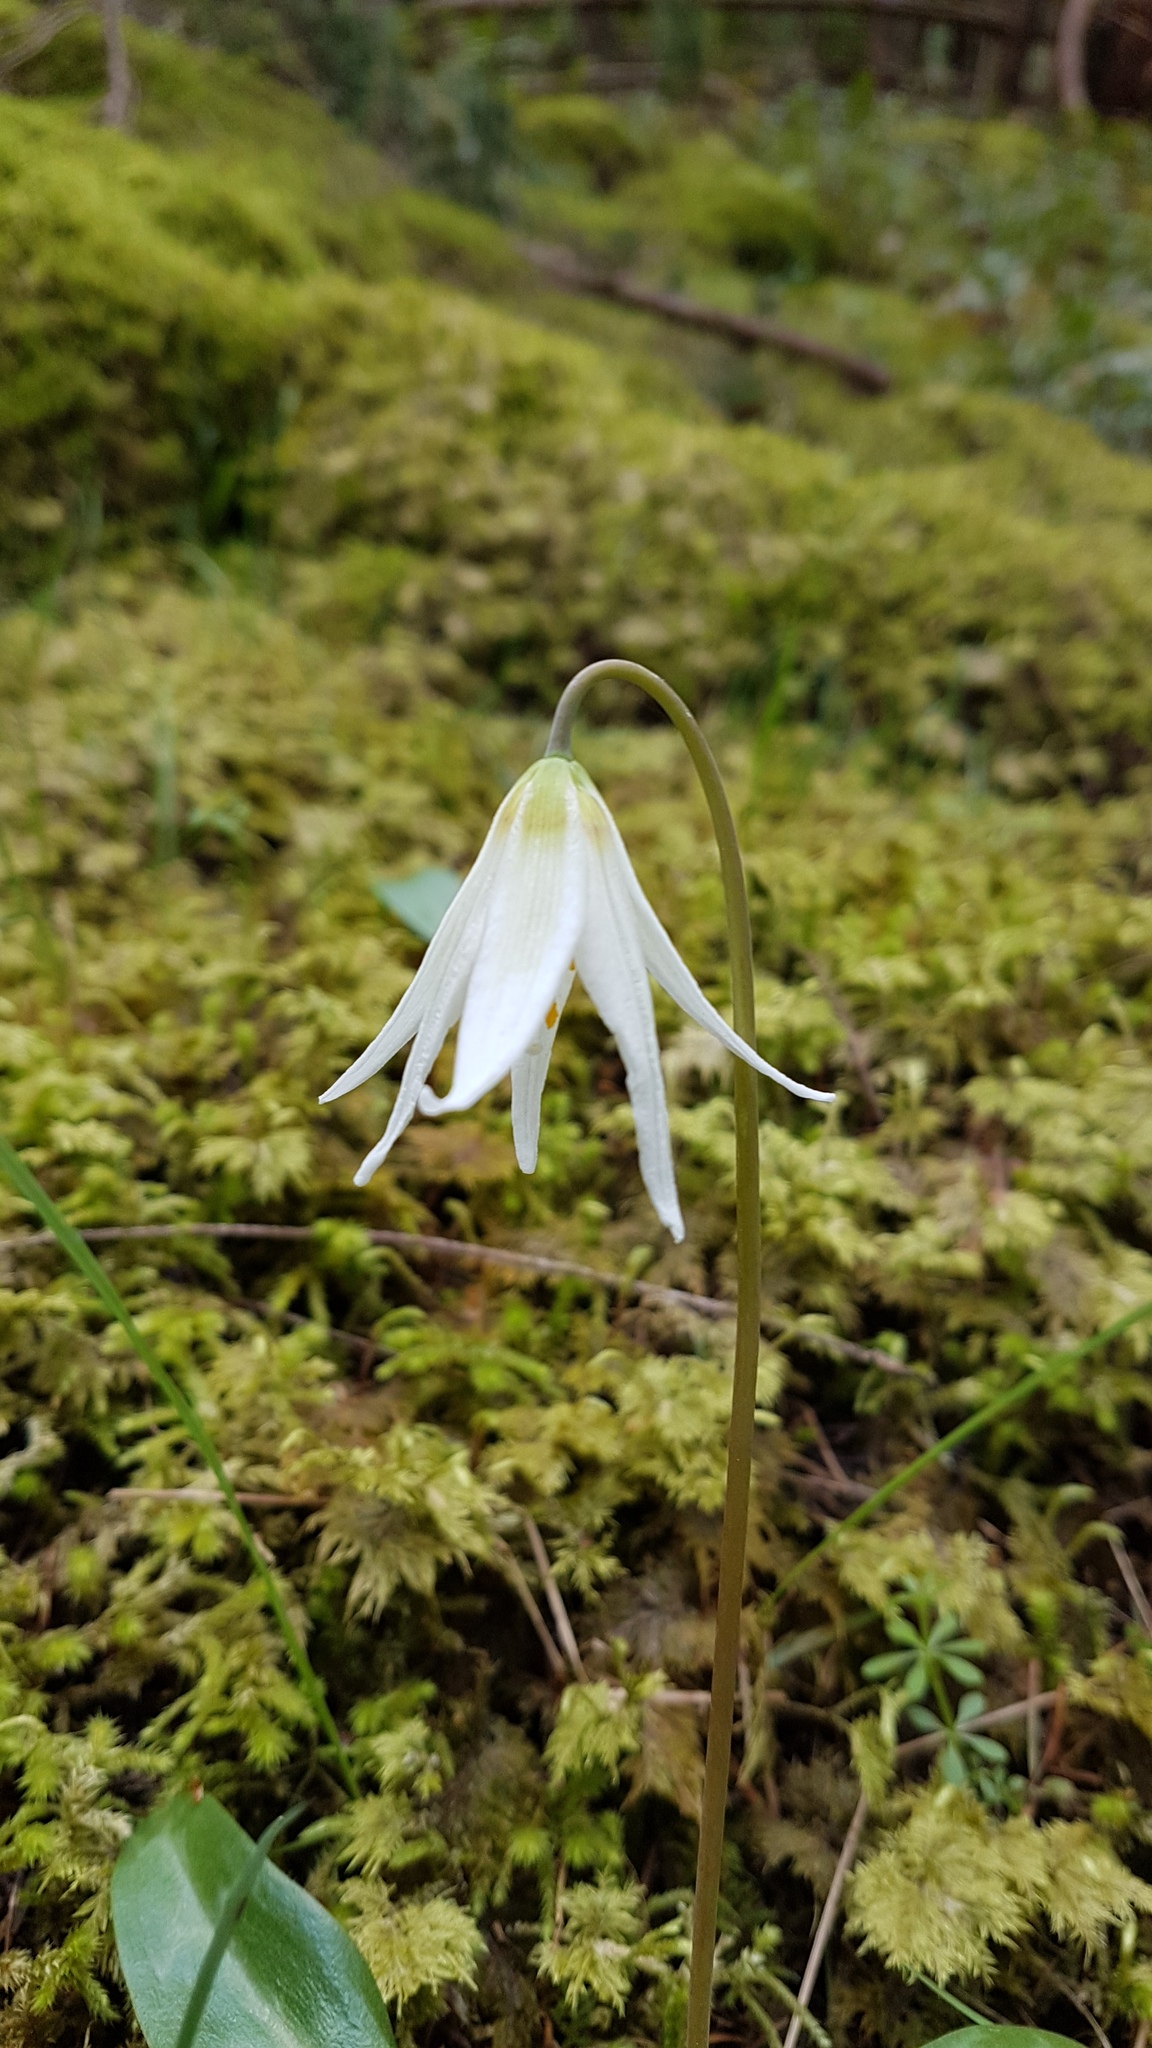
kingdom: Plantae
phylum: Tracheophyta
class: Liliopsida
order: Liliales
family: Liliaceae
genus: Erythronium
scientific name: Erythronium oregonum
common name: Giant adder's-tongue
